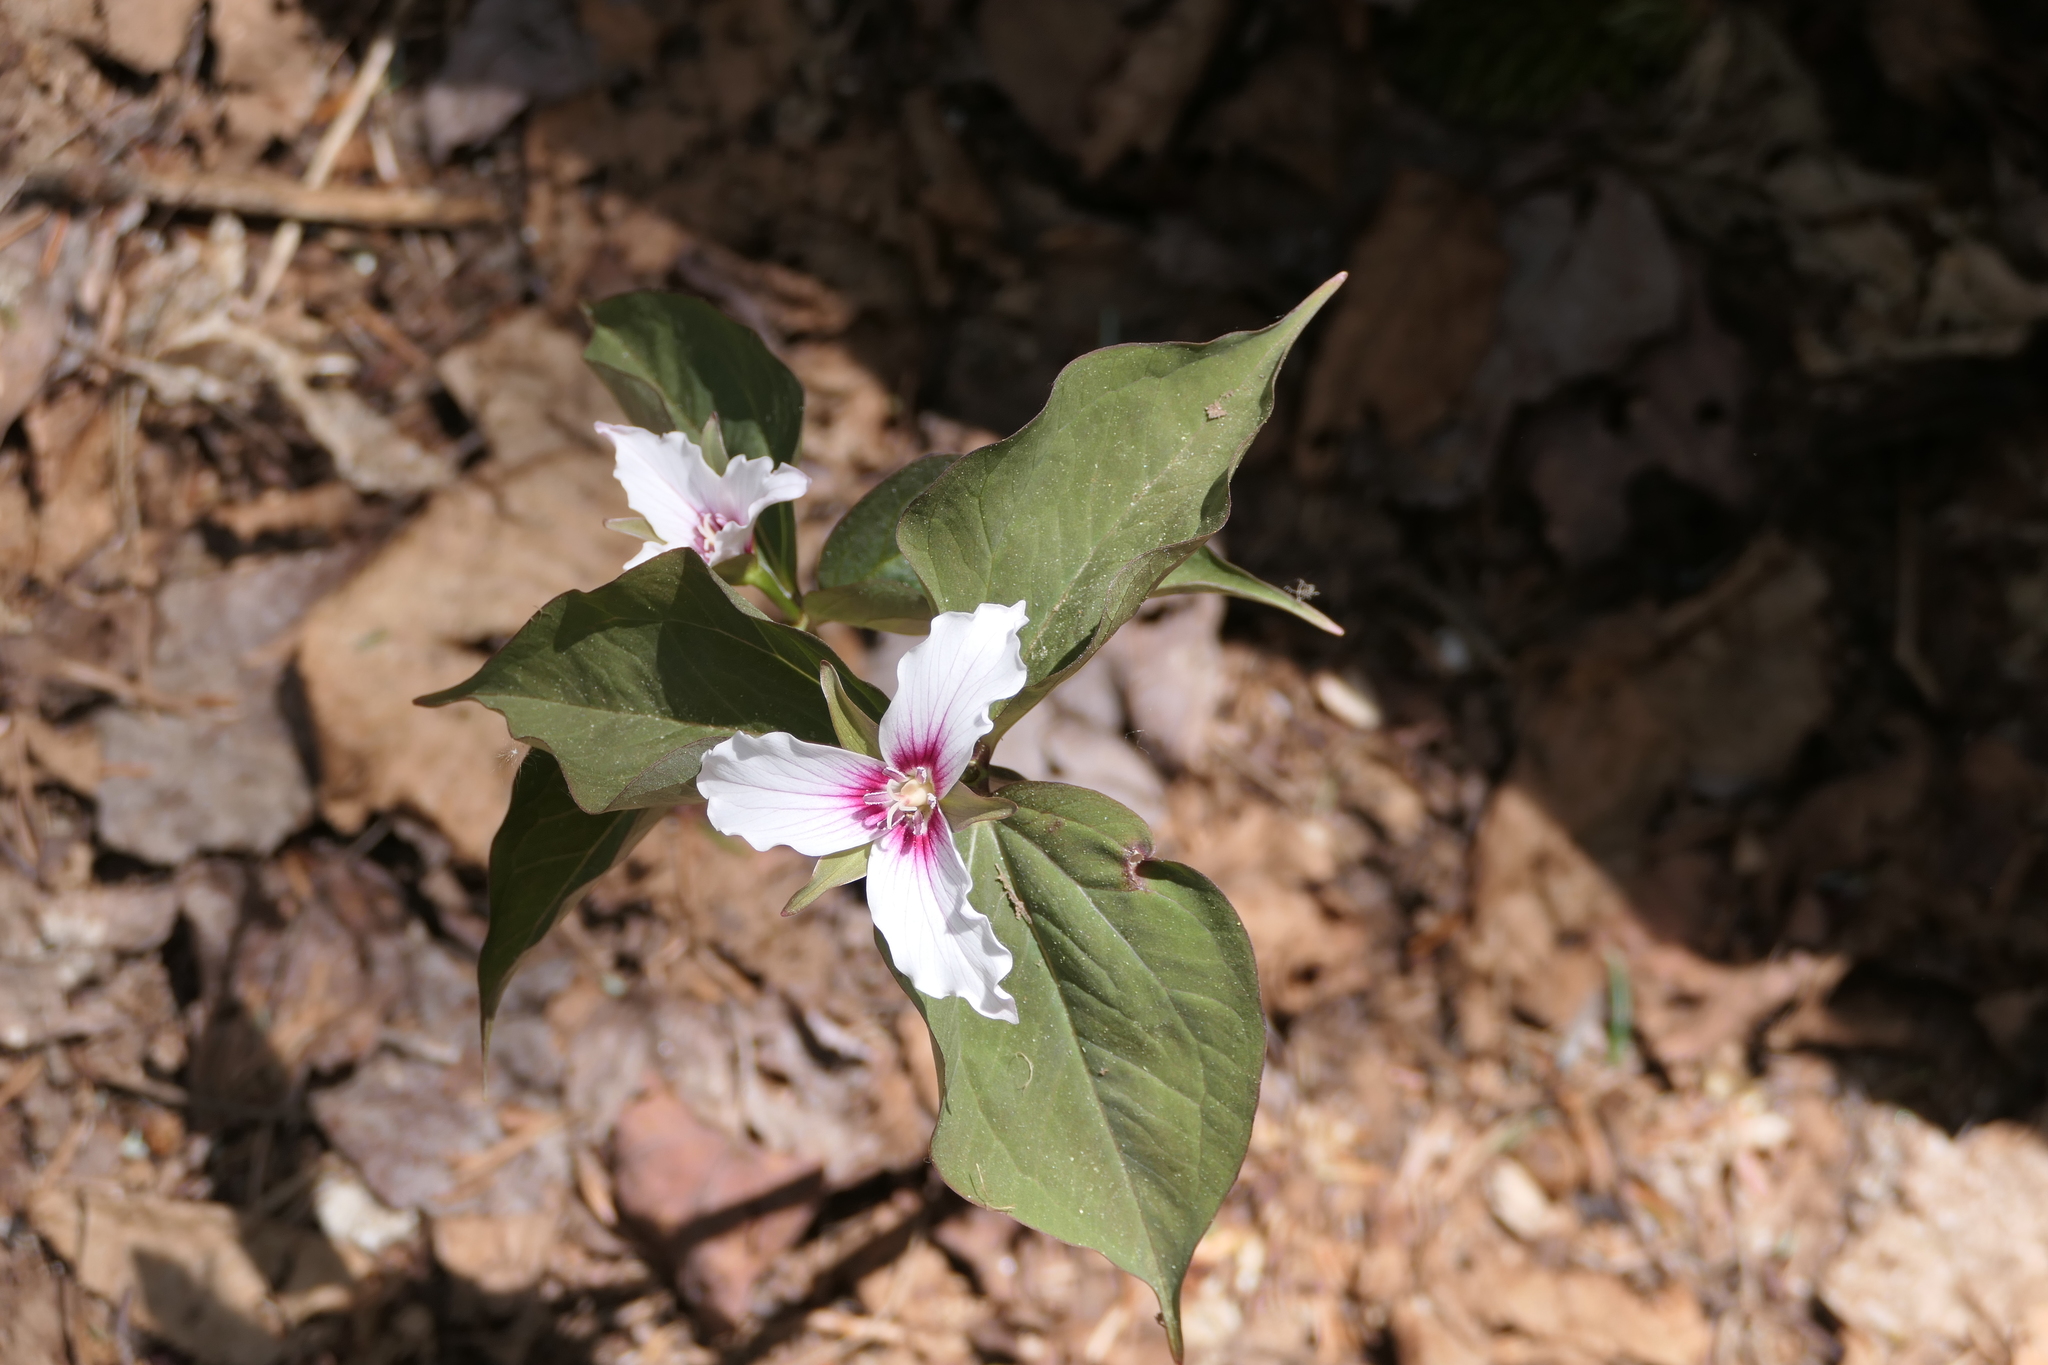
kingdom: Plantae
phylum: Tracheophyta
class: Liliopsida
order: Liliales
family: Melanthiaceae
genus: Trillium
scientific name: Trillium undulatum
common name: Paint trillium
